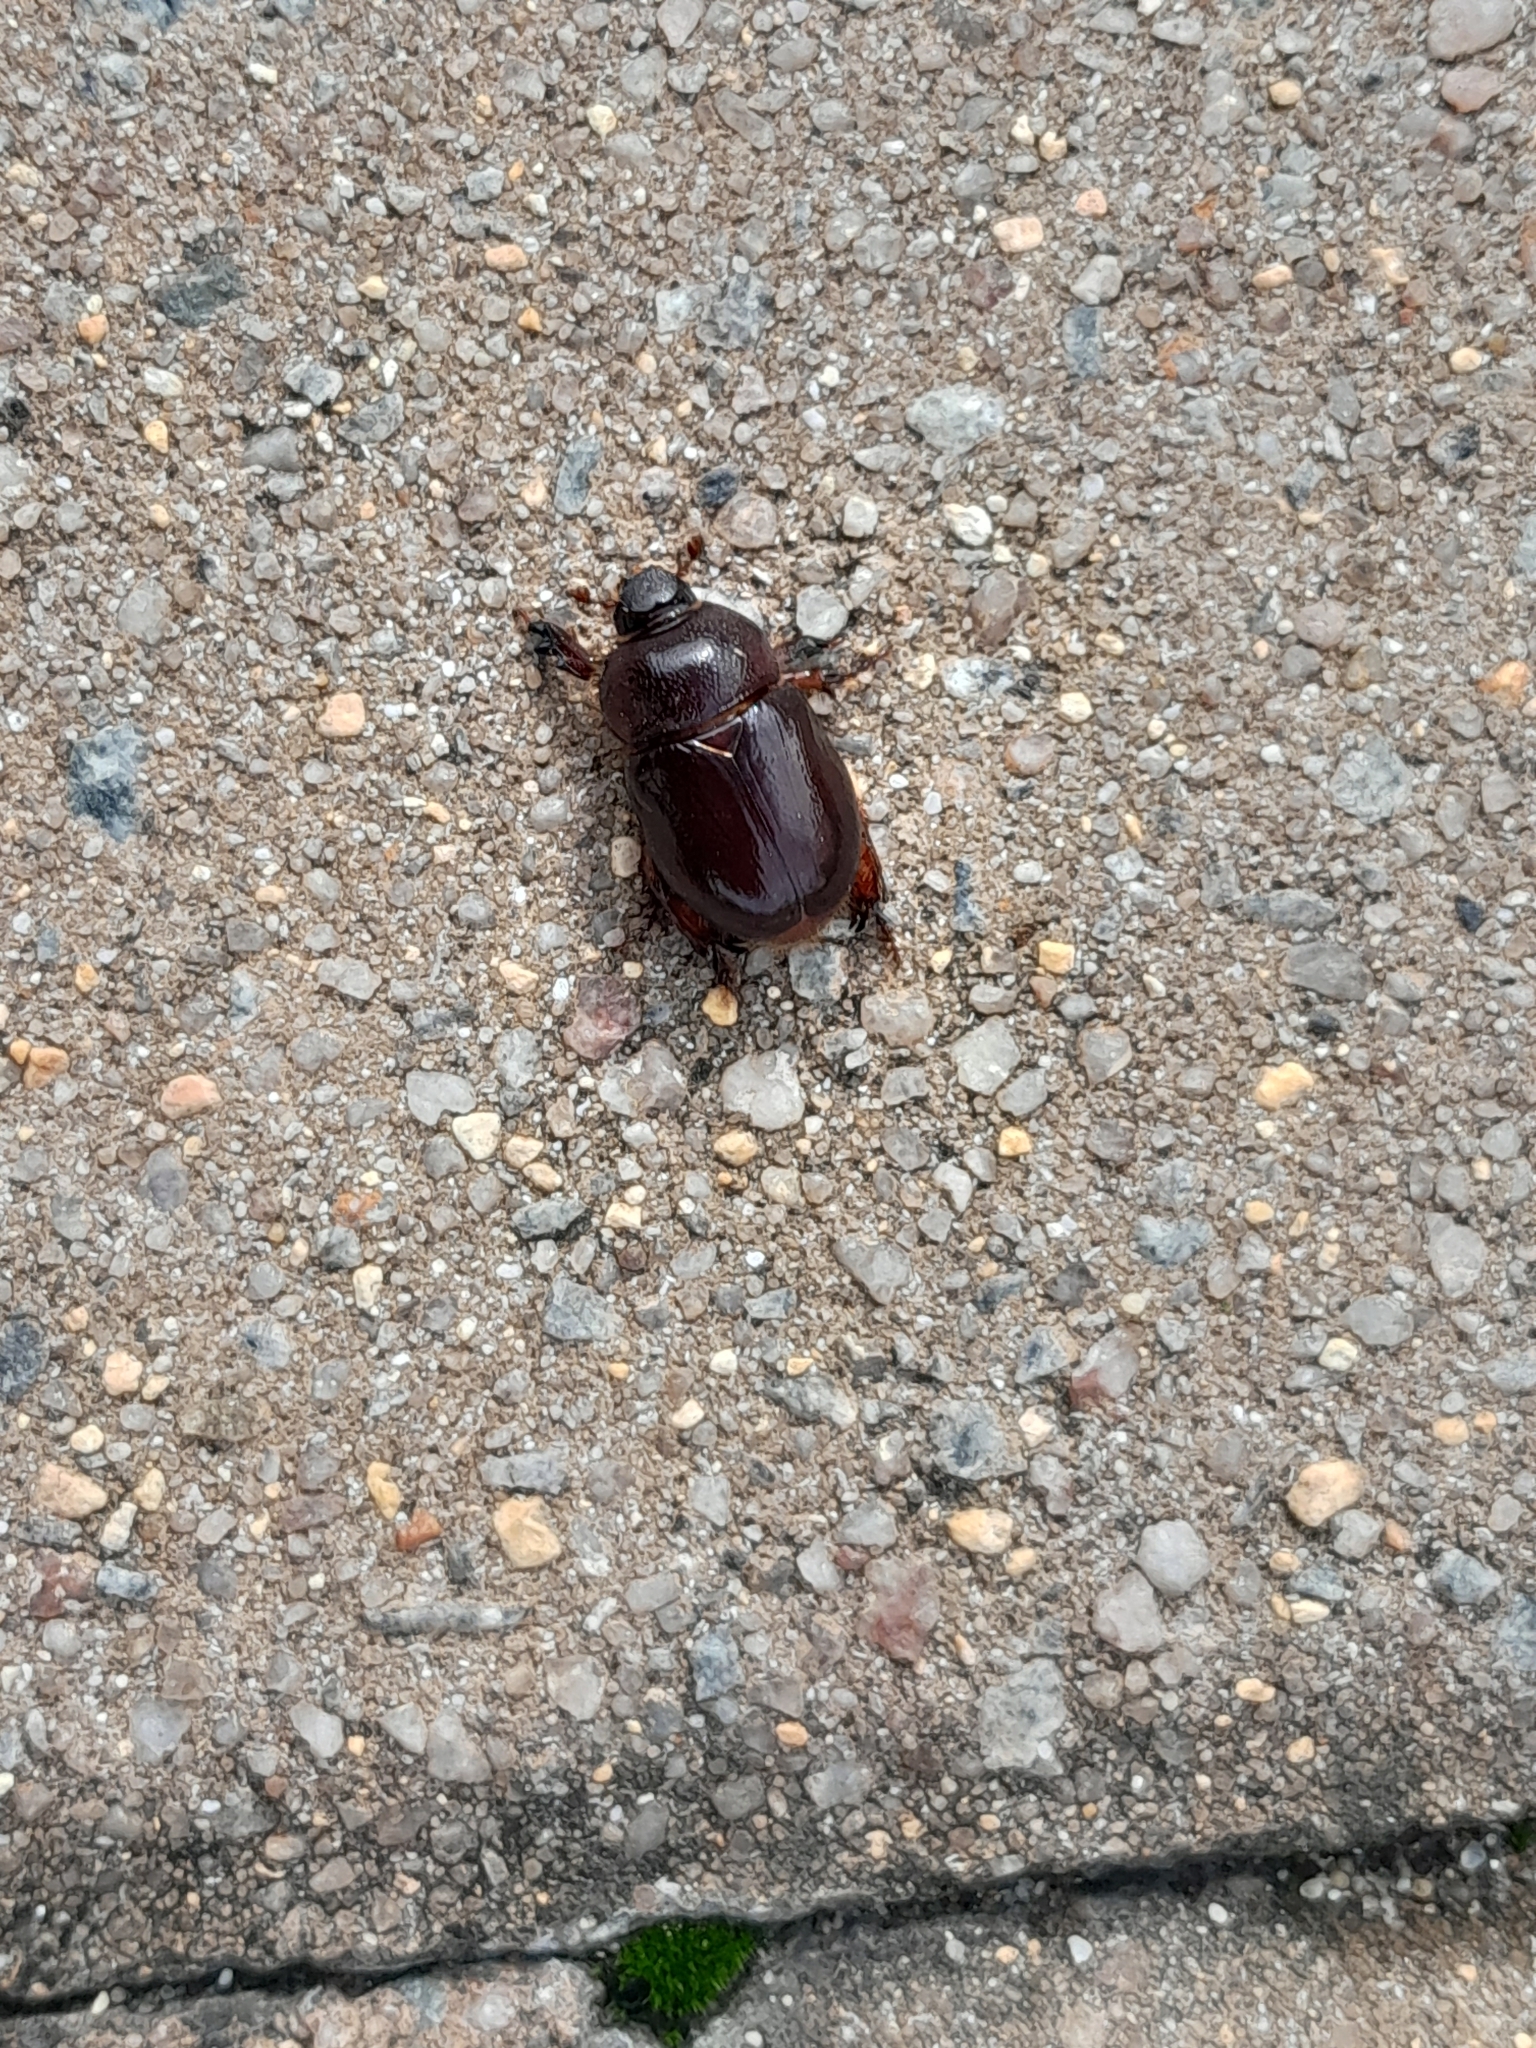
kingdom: Animalia
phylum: Arthropoda
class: Insecta
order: Coleoptera
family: Scarabaeidae
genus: Temnorhynchus
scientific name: Temnorhynchus retusus
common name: Plate-faced beetle
